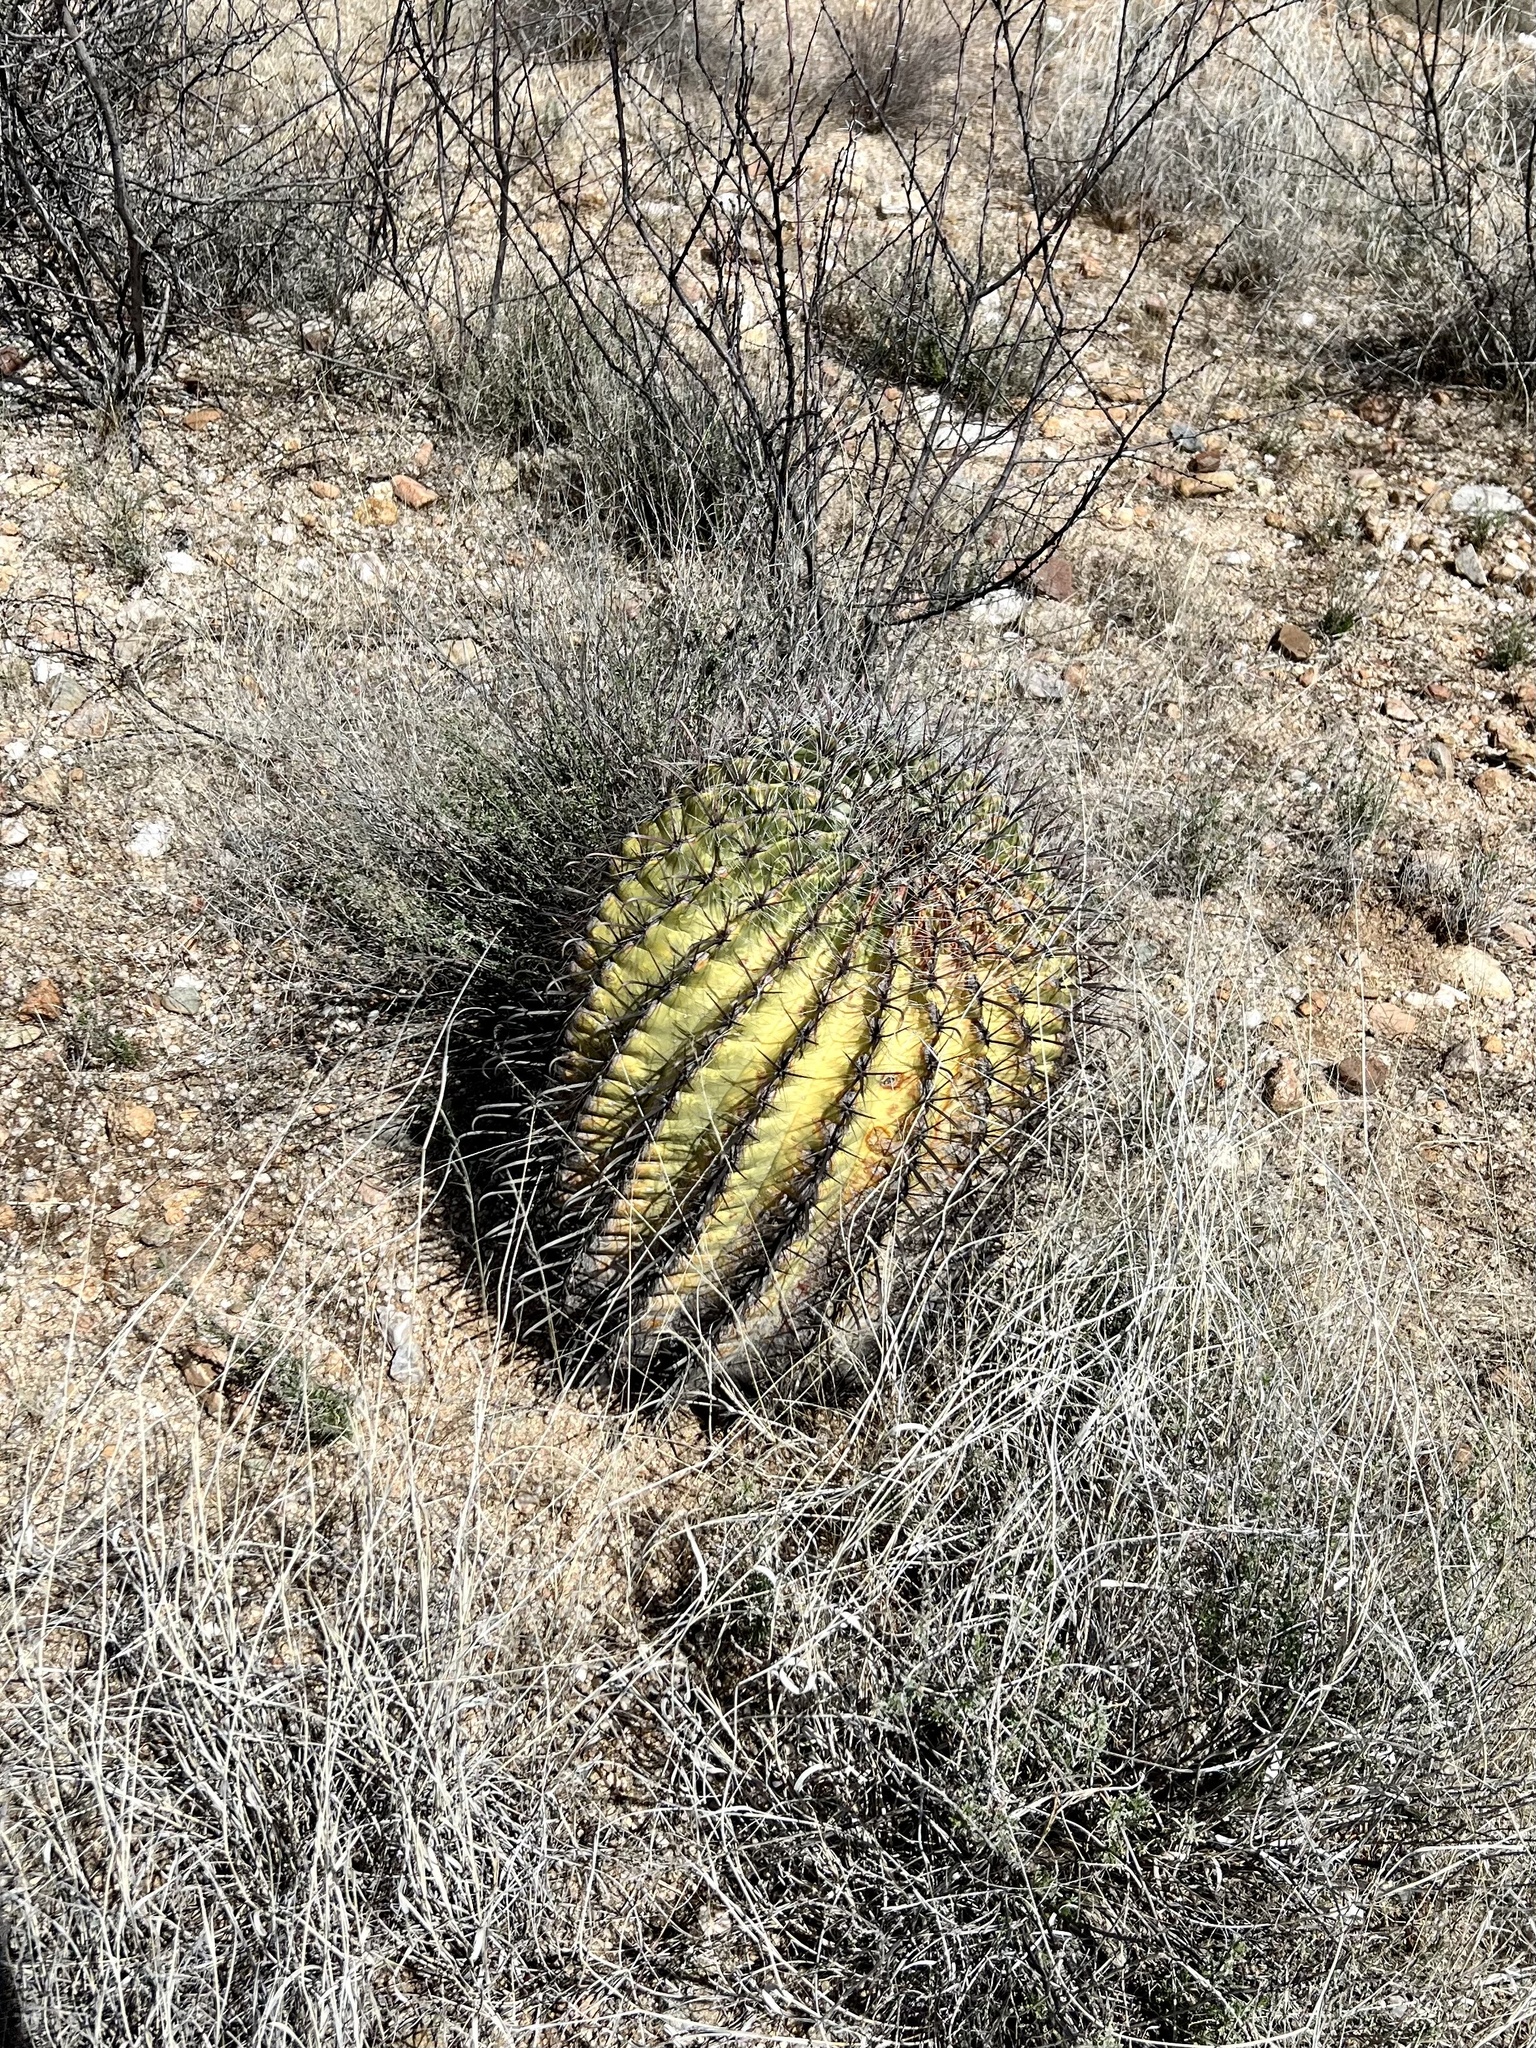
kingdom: Plantae
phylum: Tracheophyta
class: Magnoliopsida
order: Caryophyllales
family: Cactaceae
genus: Ferocactus
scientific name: Ferocactus wislizeni
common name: Candy barrel cactus
